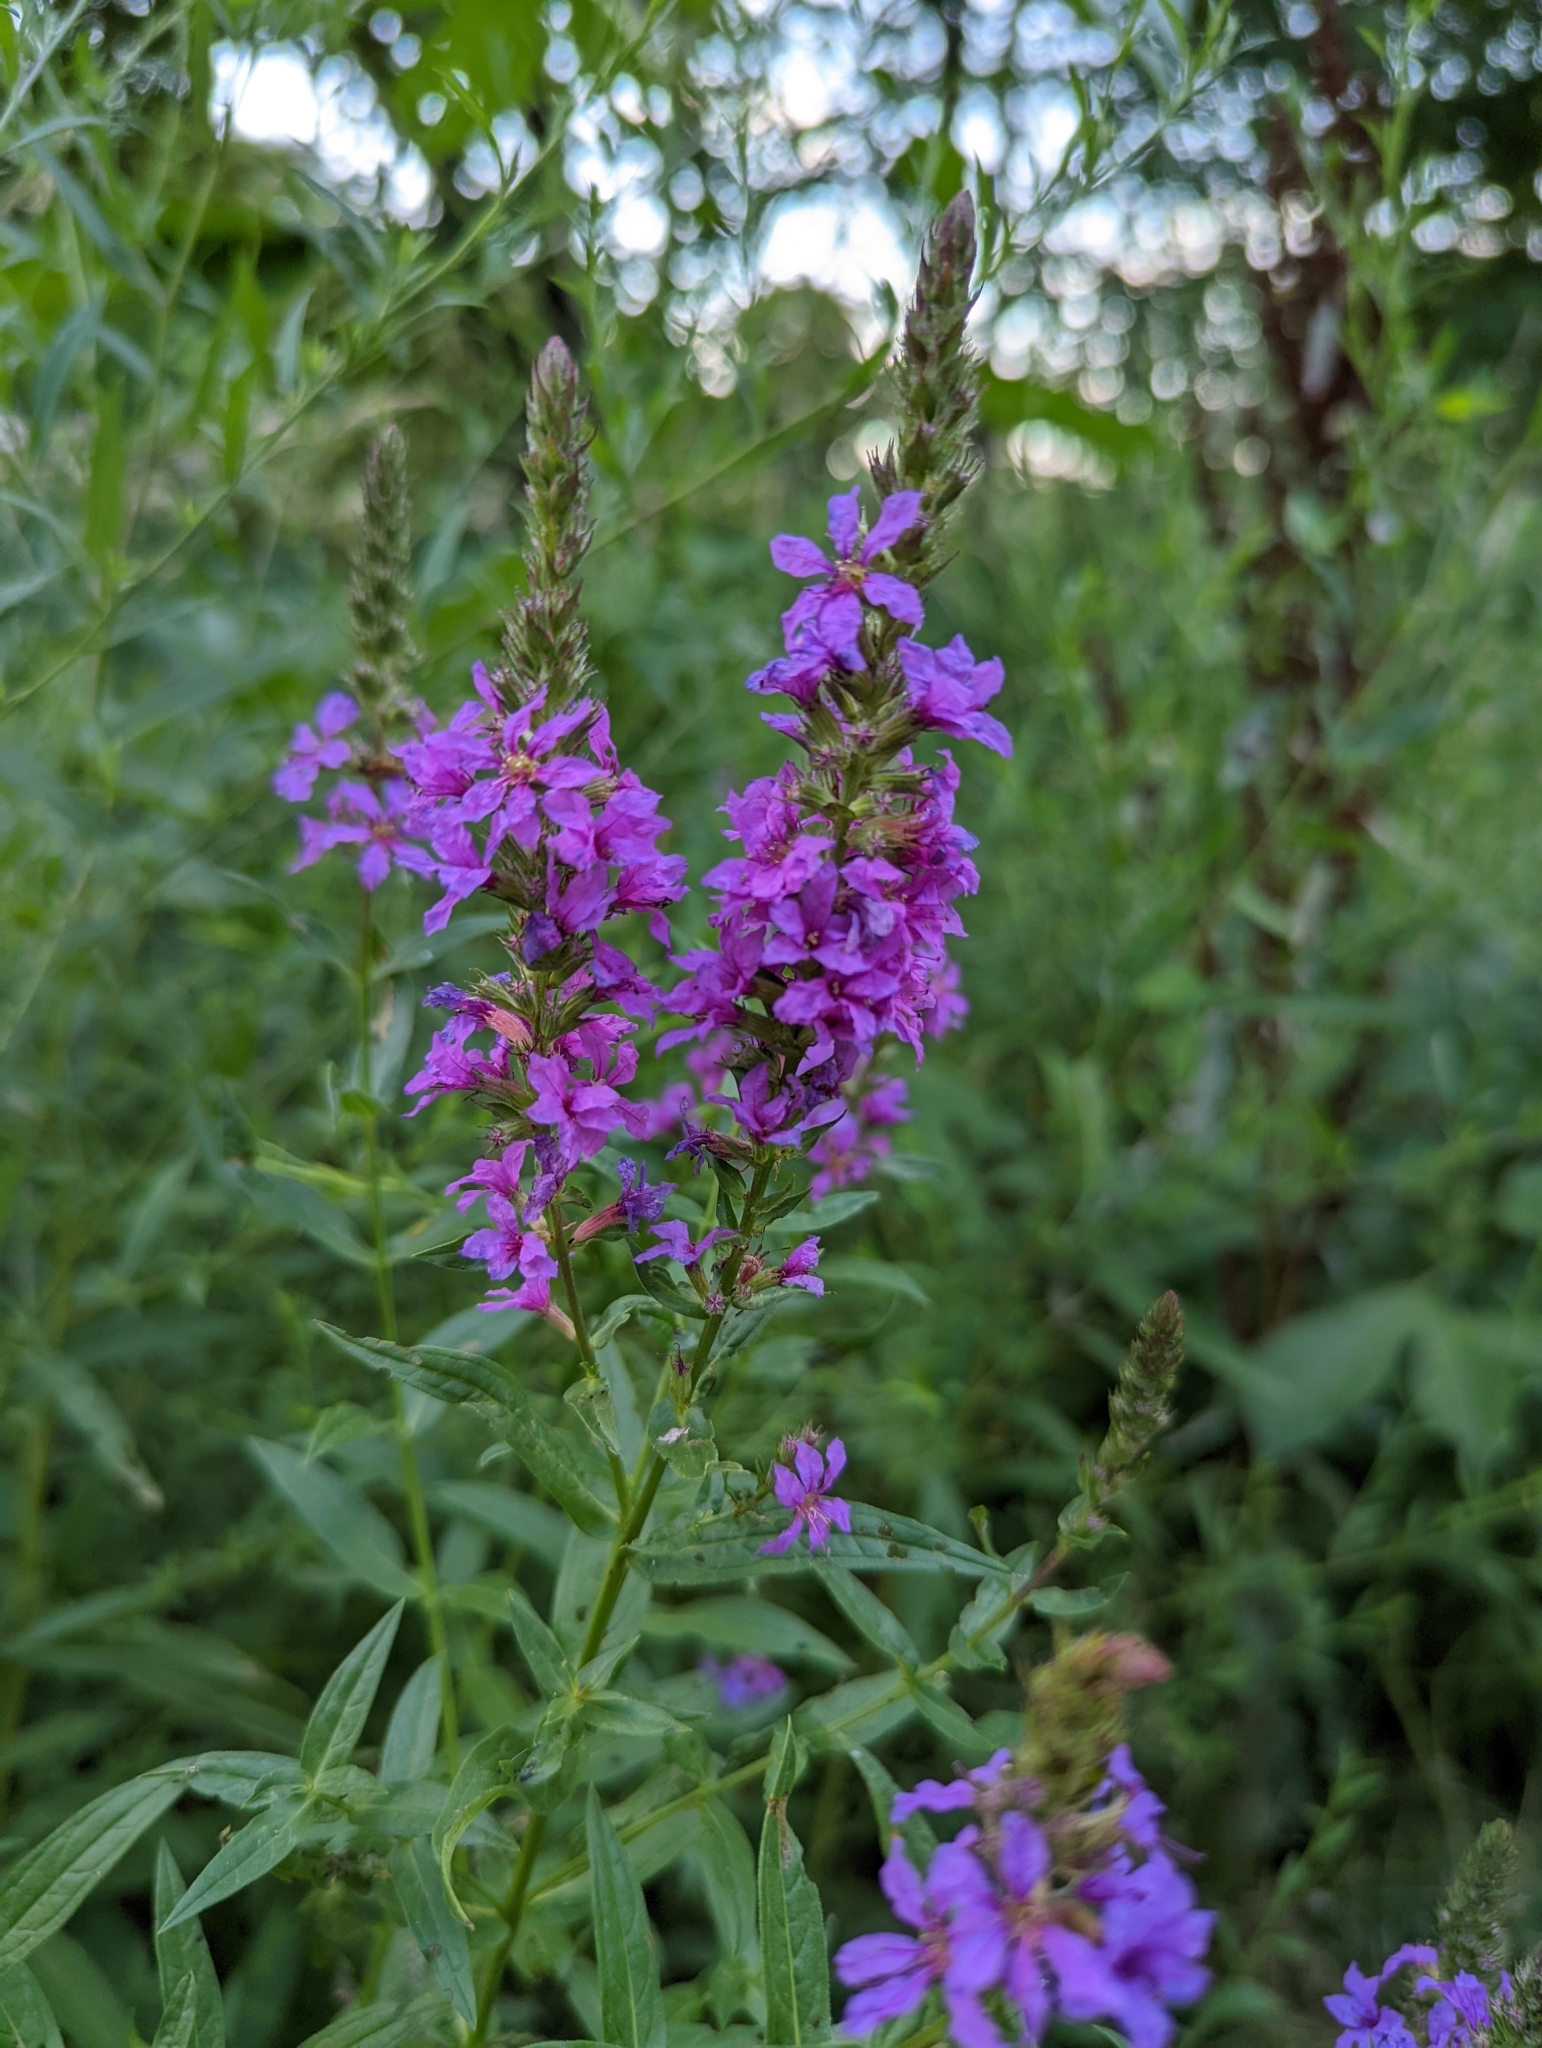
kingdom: Plantae
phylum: Tracheophyta
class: Magnoliopsida
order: Myrtales
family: Lythraceae
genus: Lythrum
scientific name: Lythrum salicaria
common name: Purple loosestrife
